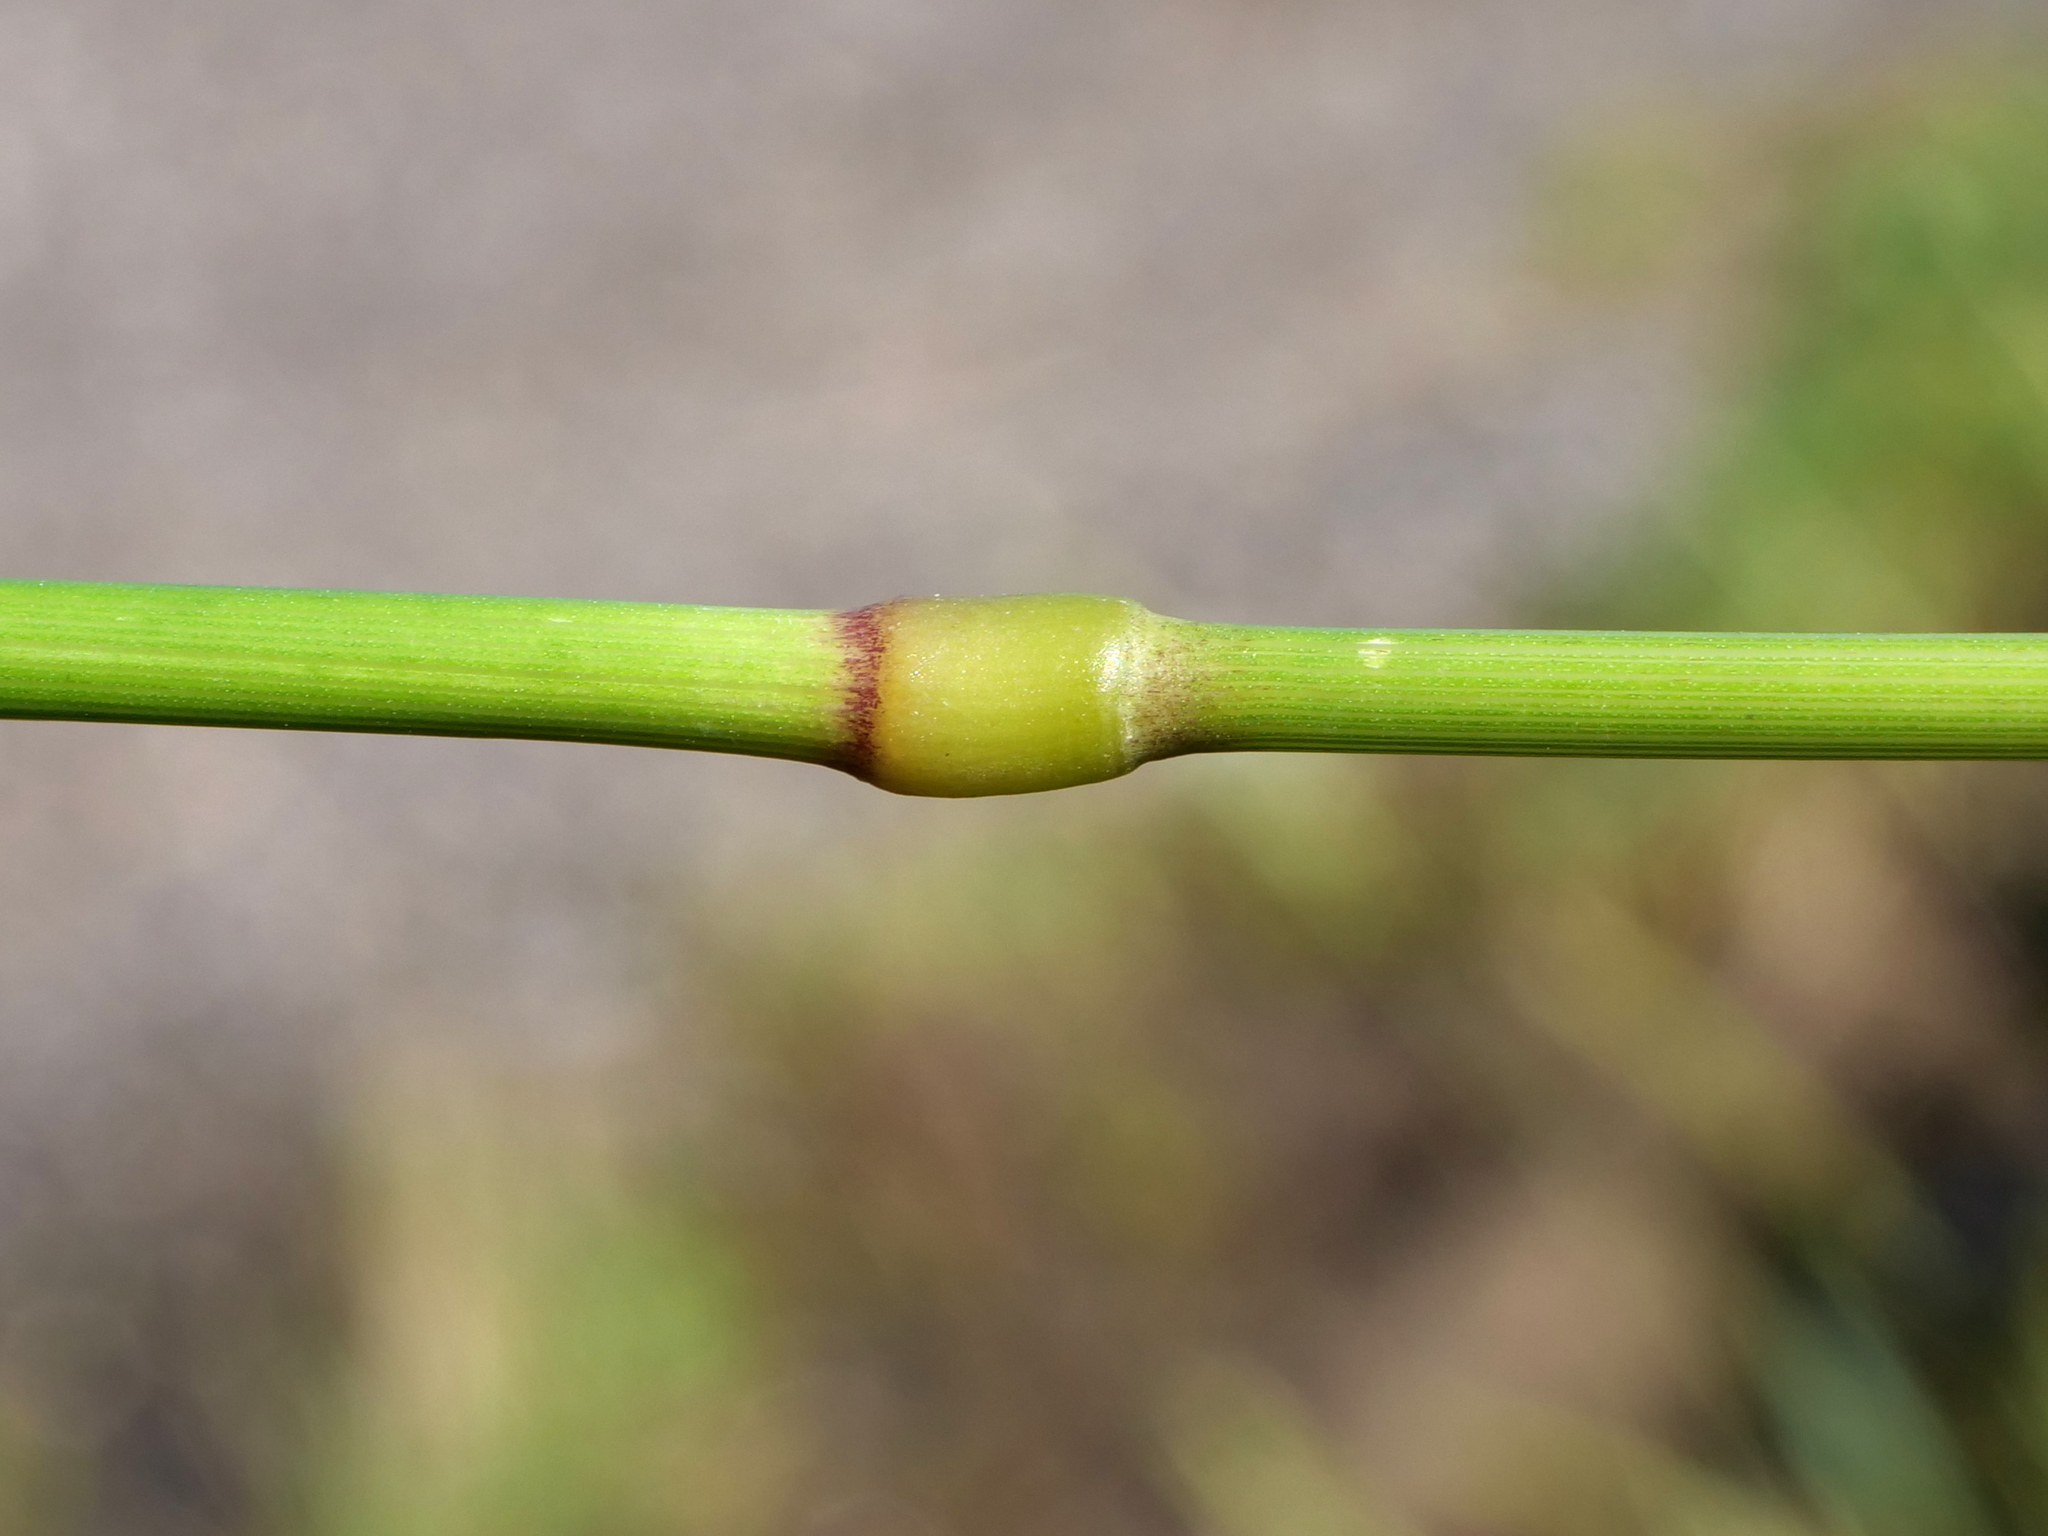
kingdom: Plantae
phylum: Tracheophyta
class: Liliopsida
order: Poales
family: Poaceae
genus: Elymus
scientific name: Elymus repens
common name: Quackgrass
